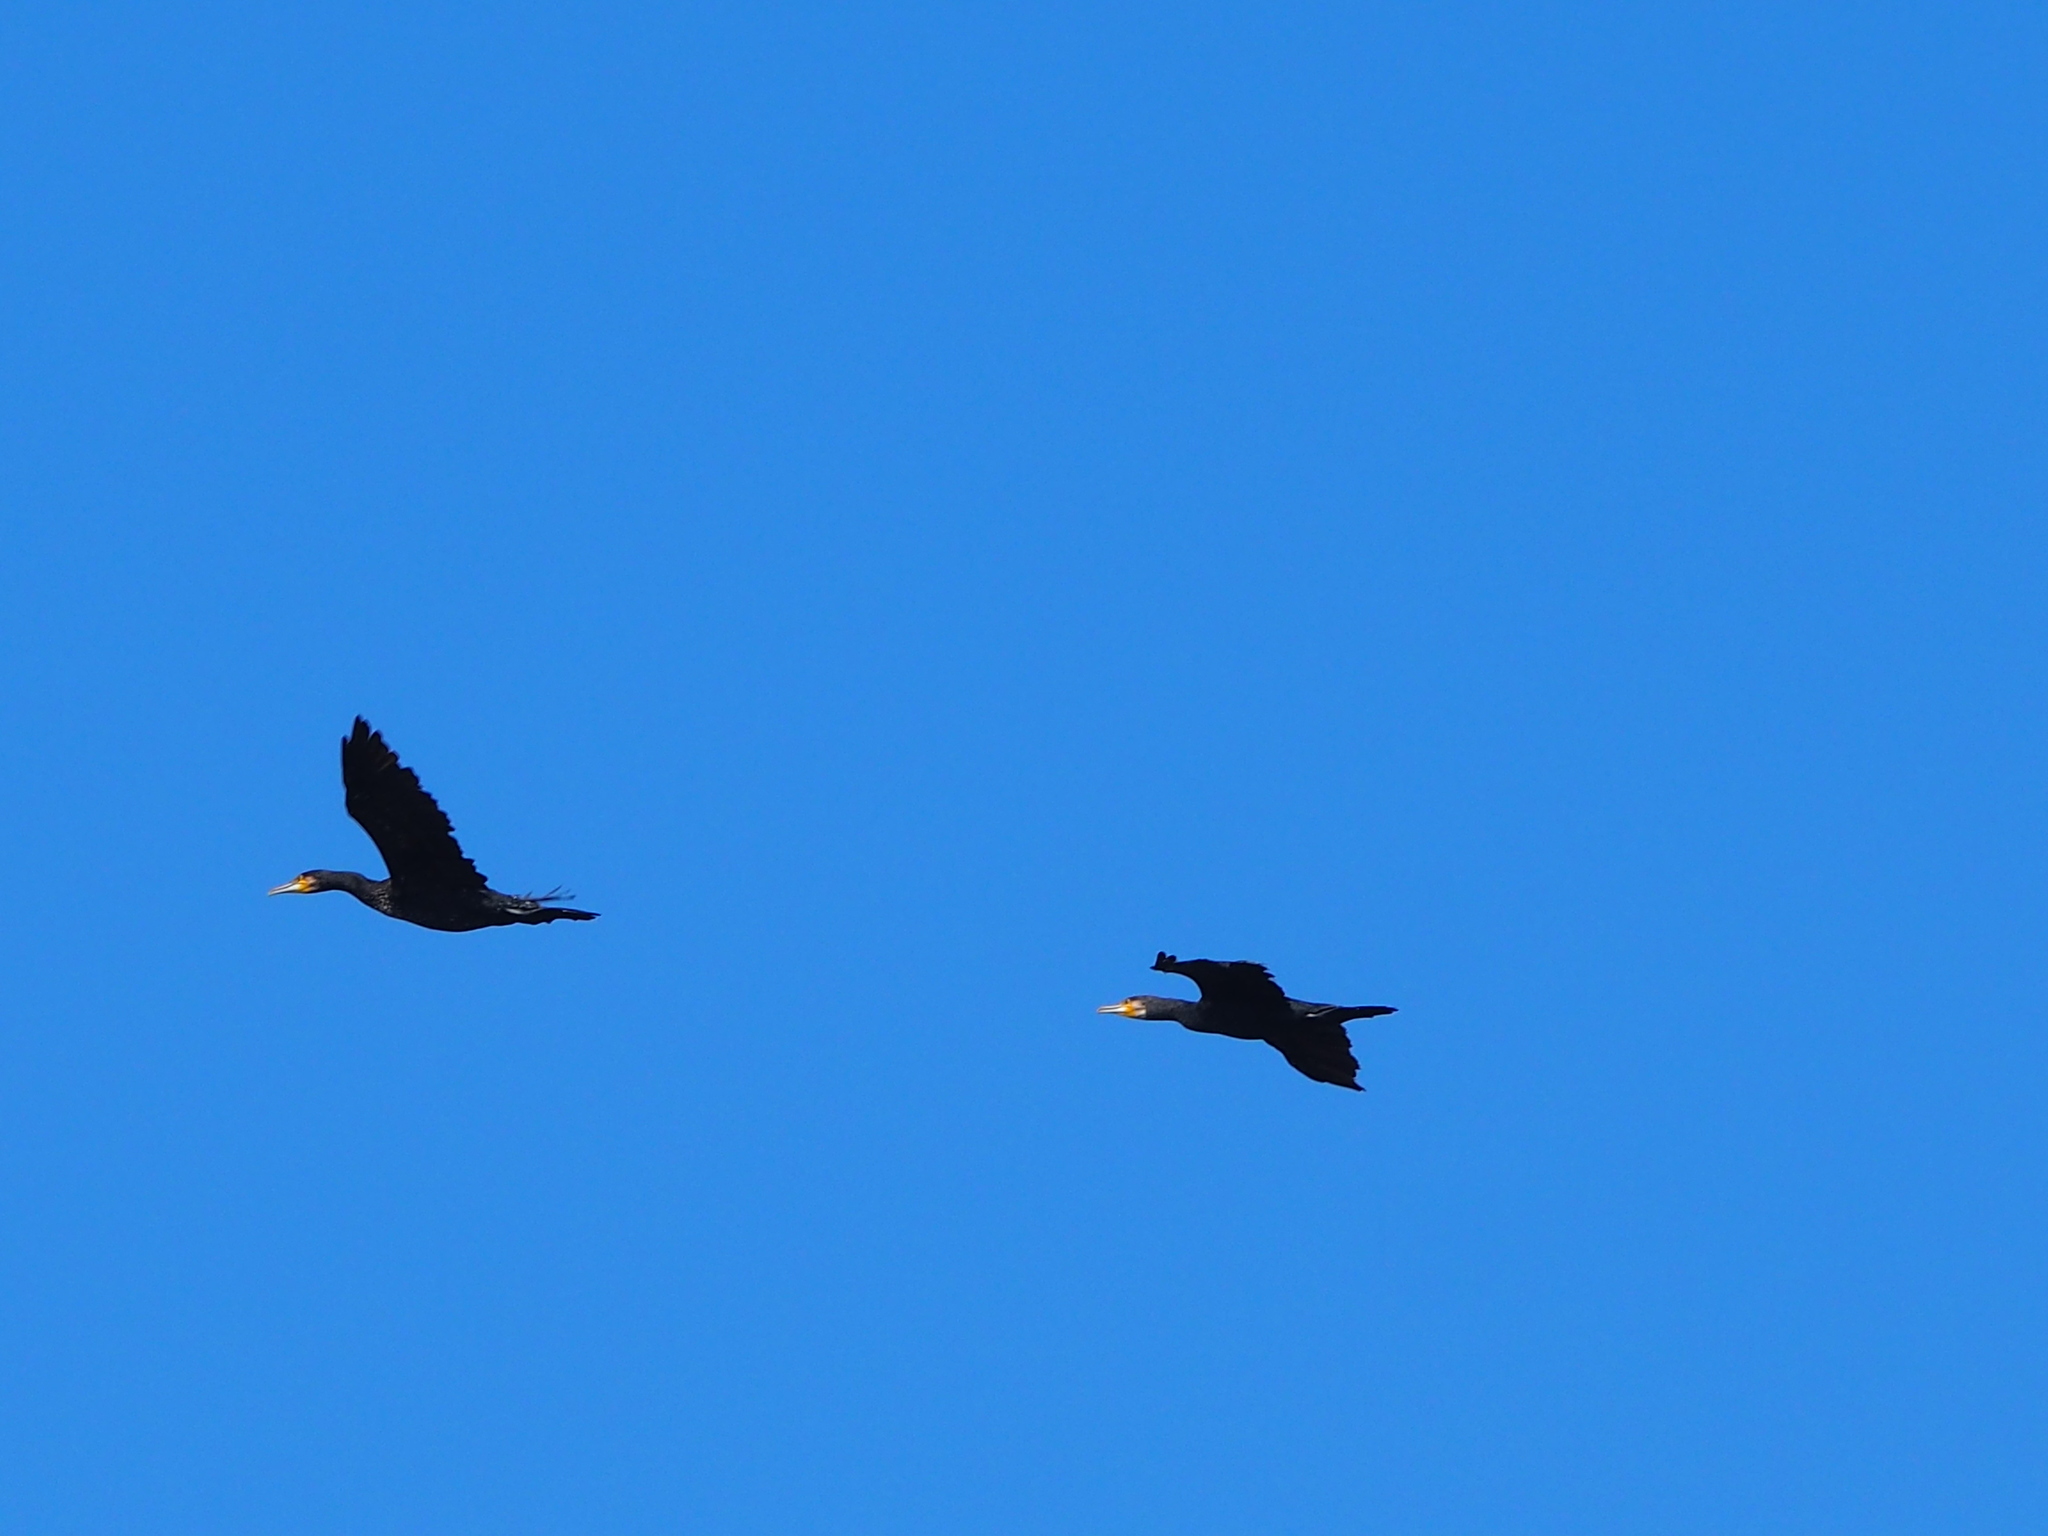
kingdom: Animalia
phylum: Chordata
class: Aves
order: Suliformes
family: Phalacrocoracidae
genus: Phalacrocorax
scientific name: Phalacrocorax carbo
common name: Great cormorant
